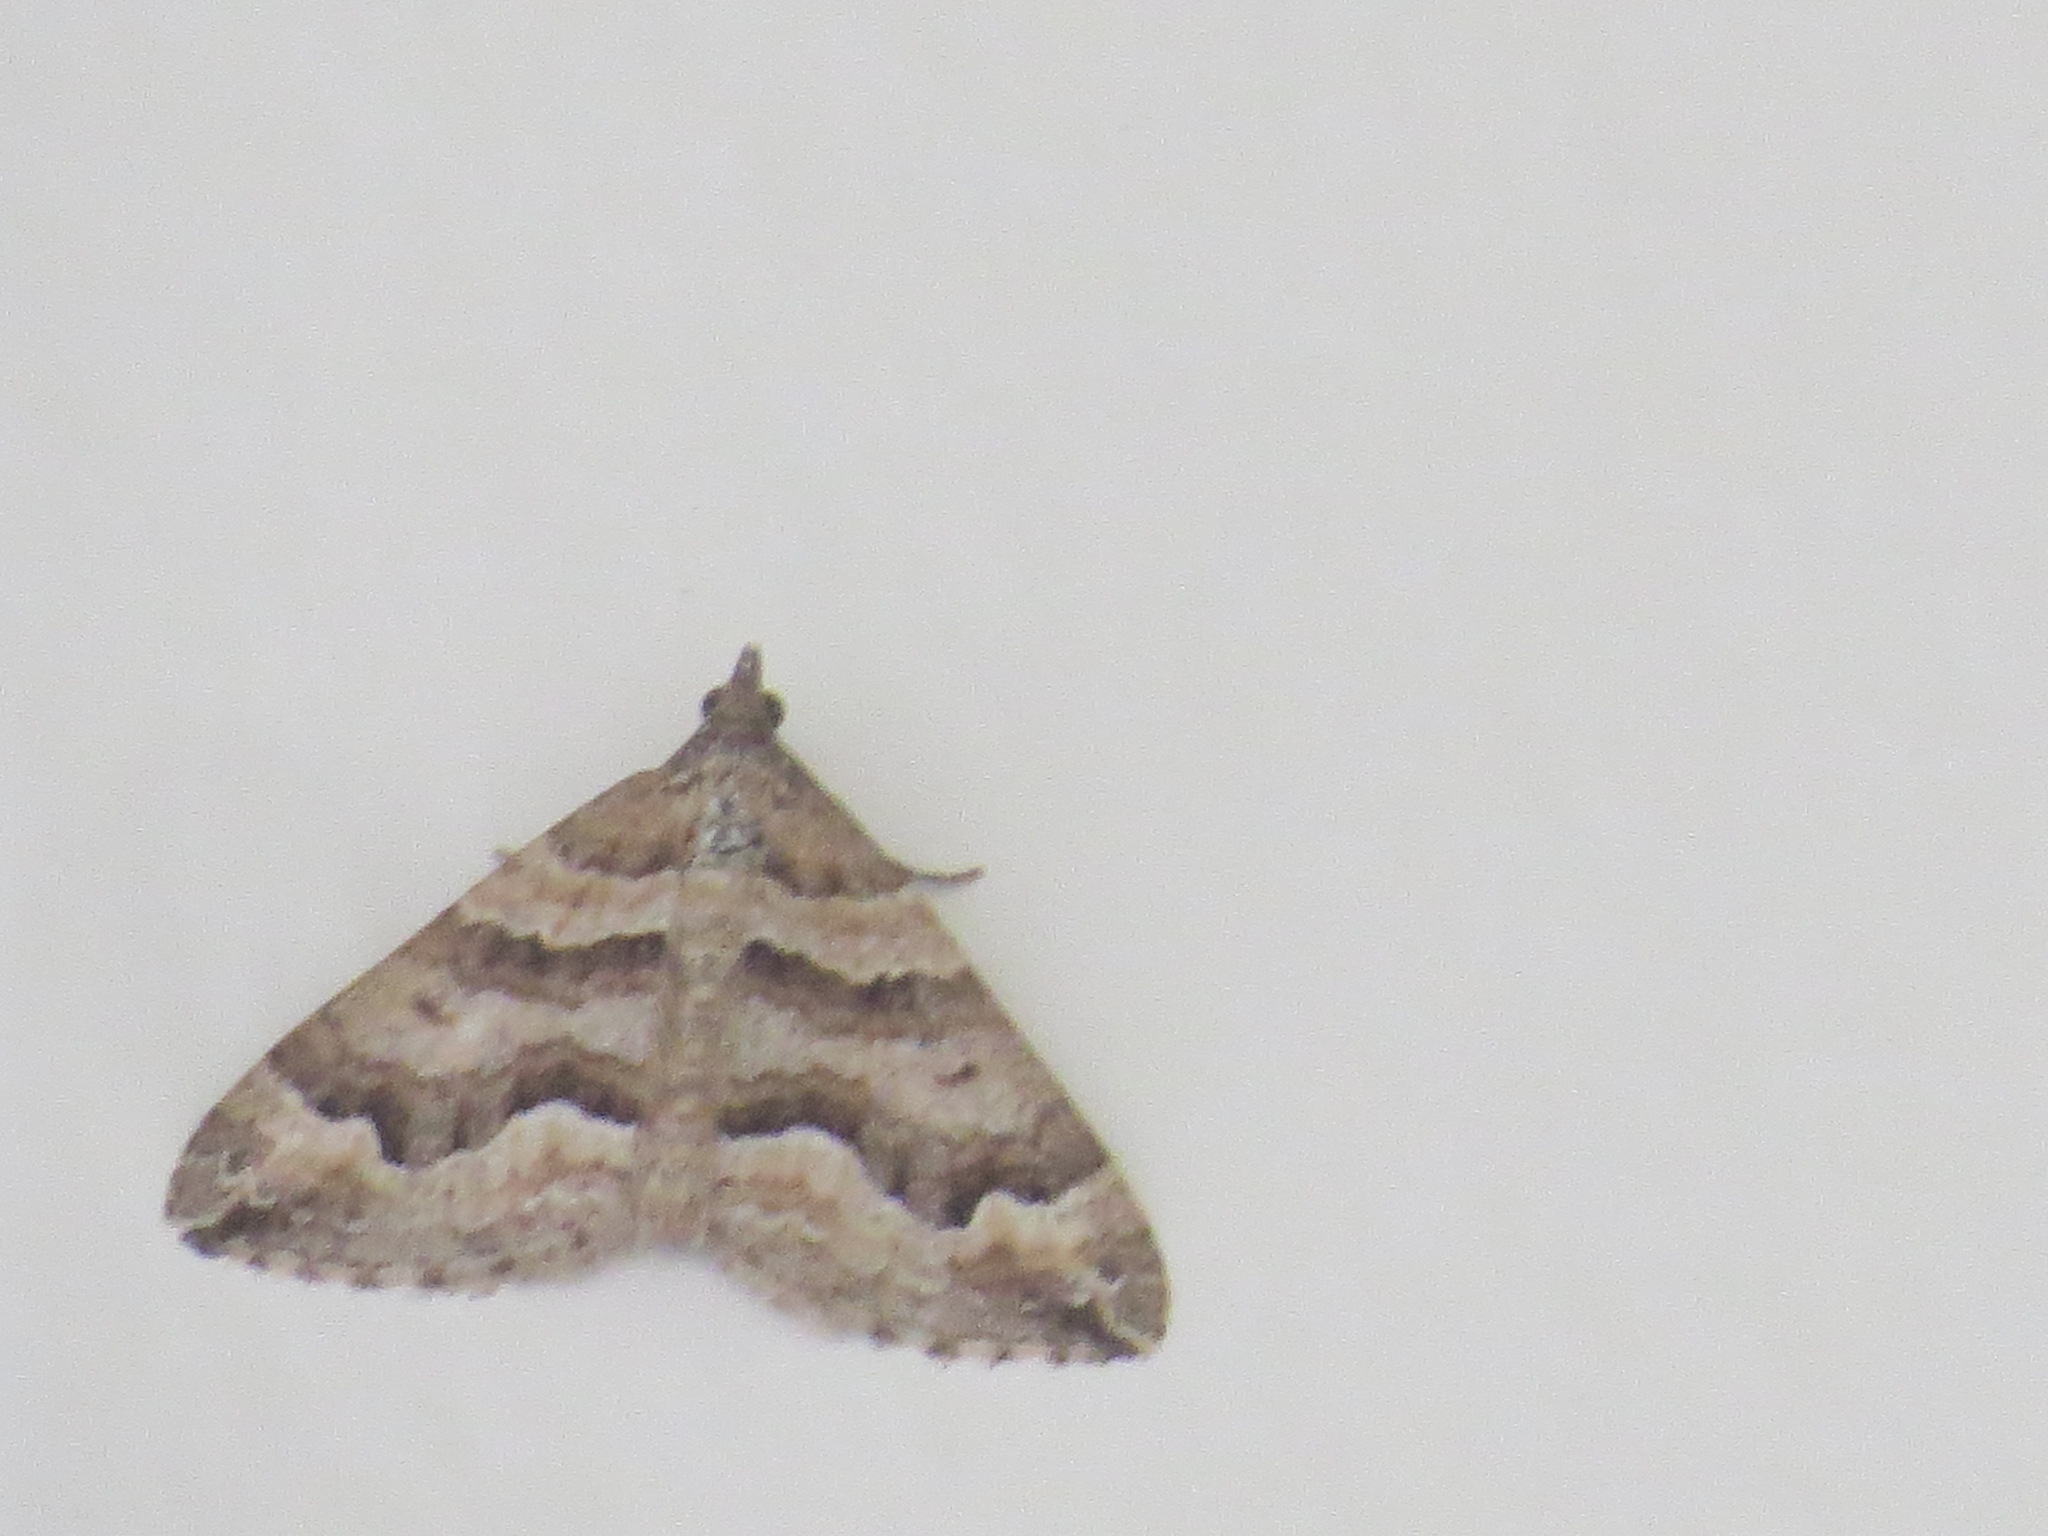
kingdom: Animalia
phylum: Arthropoda
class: Insecta
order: Lepidoptera
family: Geometridae
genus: Perizoma
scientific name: Perizoma epictata
